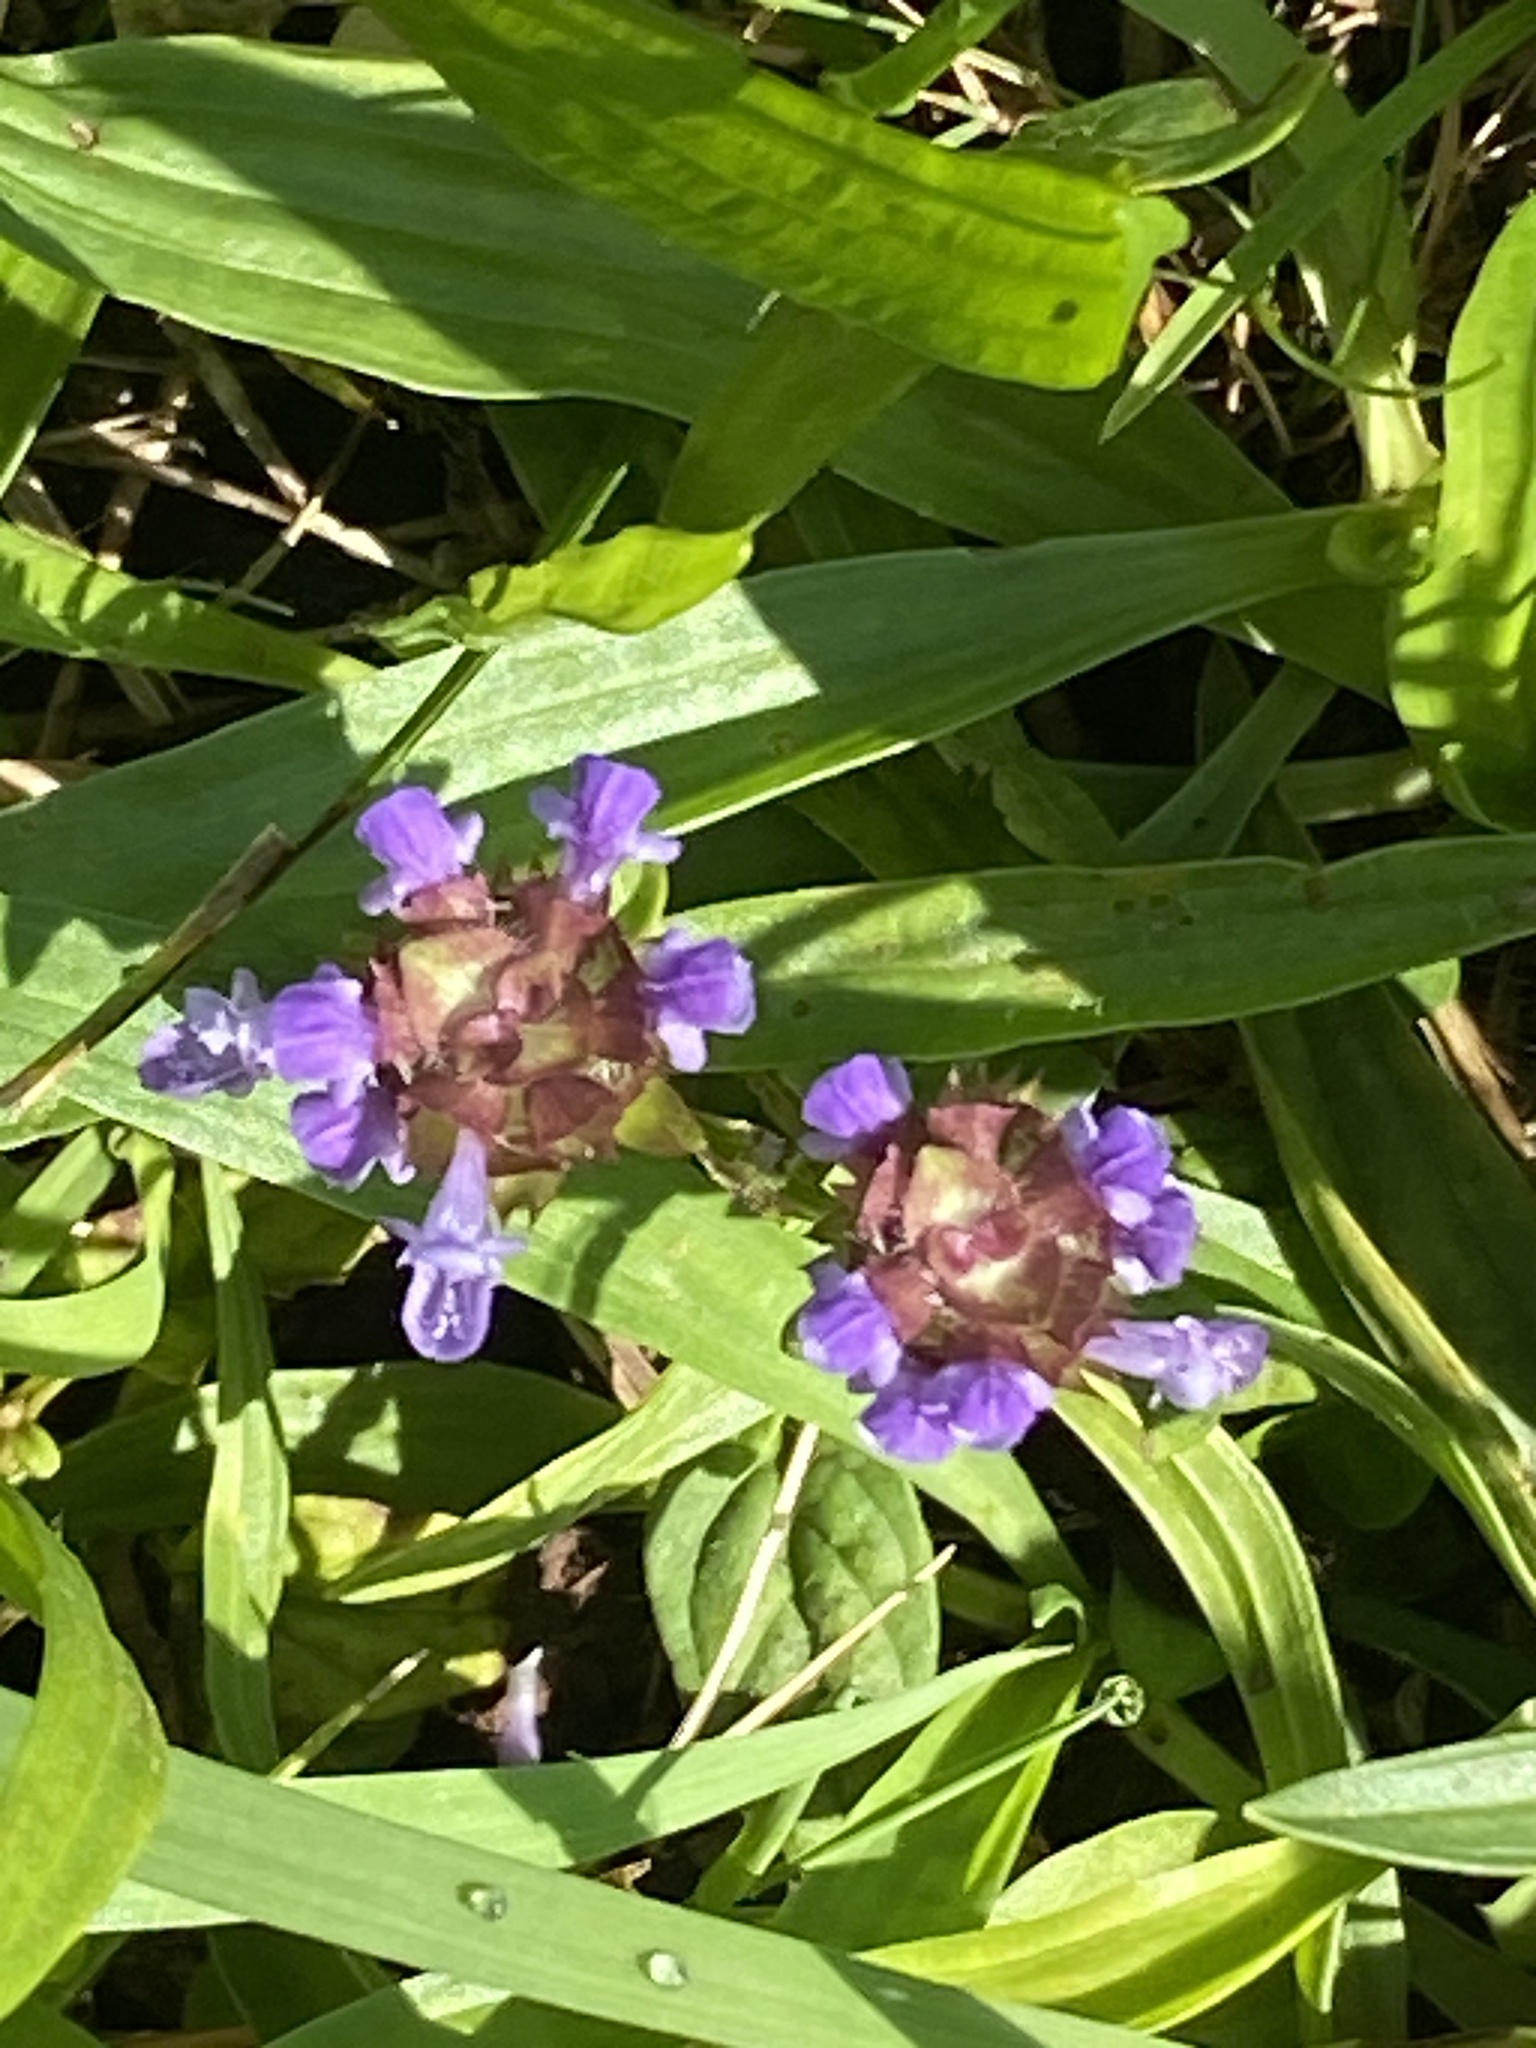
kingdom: Plantae
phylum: Tracheophyta
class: Magnoliopsida
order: Lamiales
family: Lamiaceae
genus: Prunella
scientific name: Prunella vulgaris
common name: Heal-all
